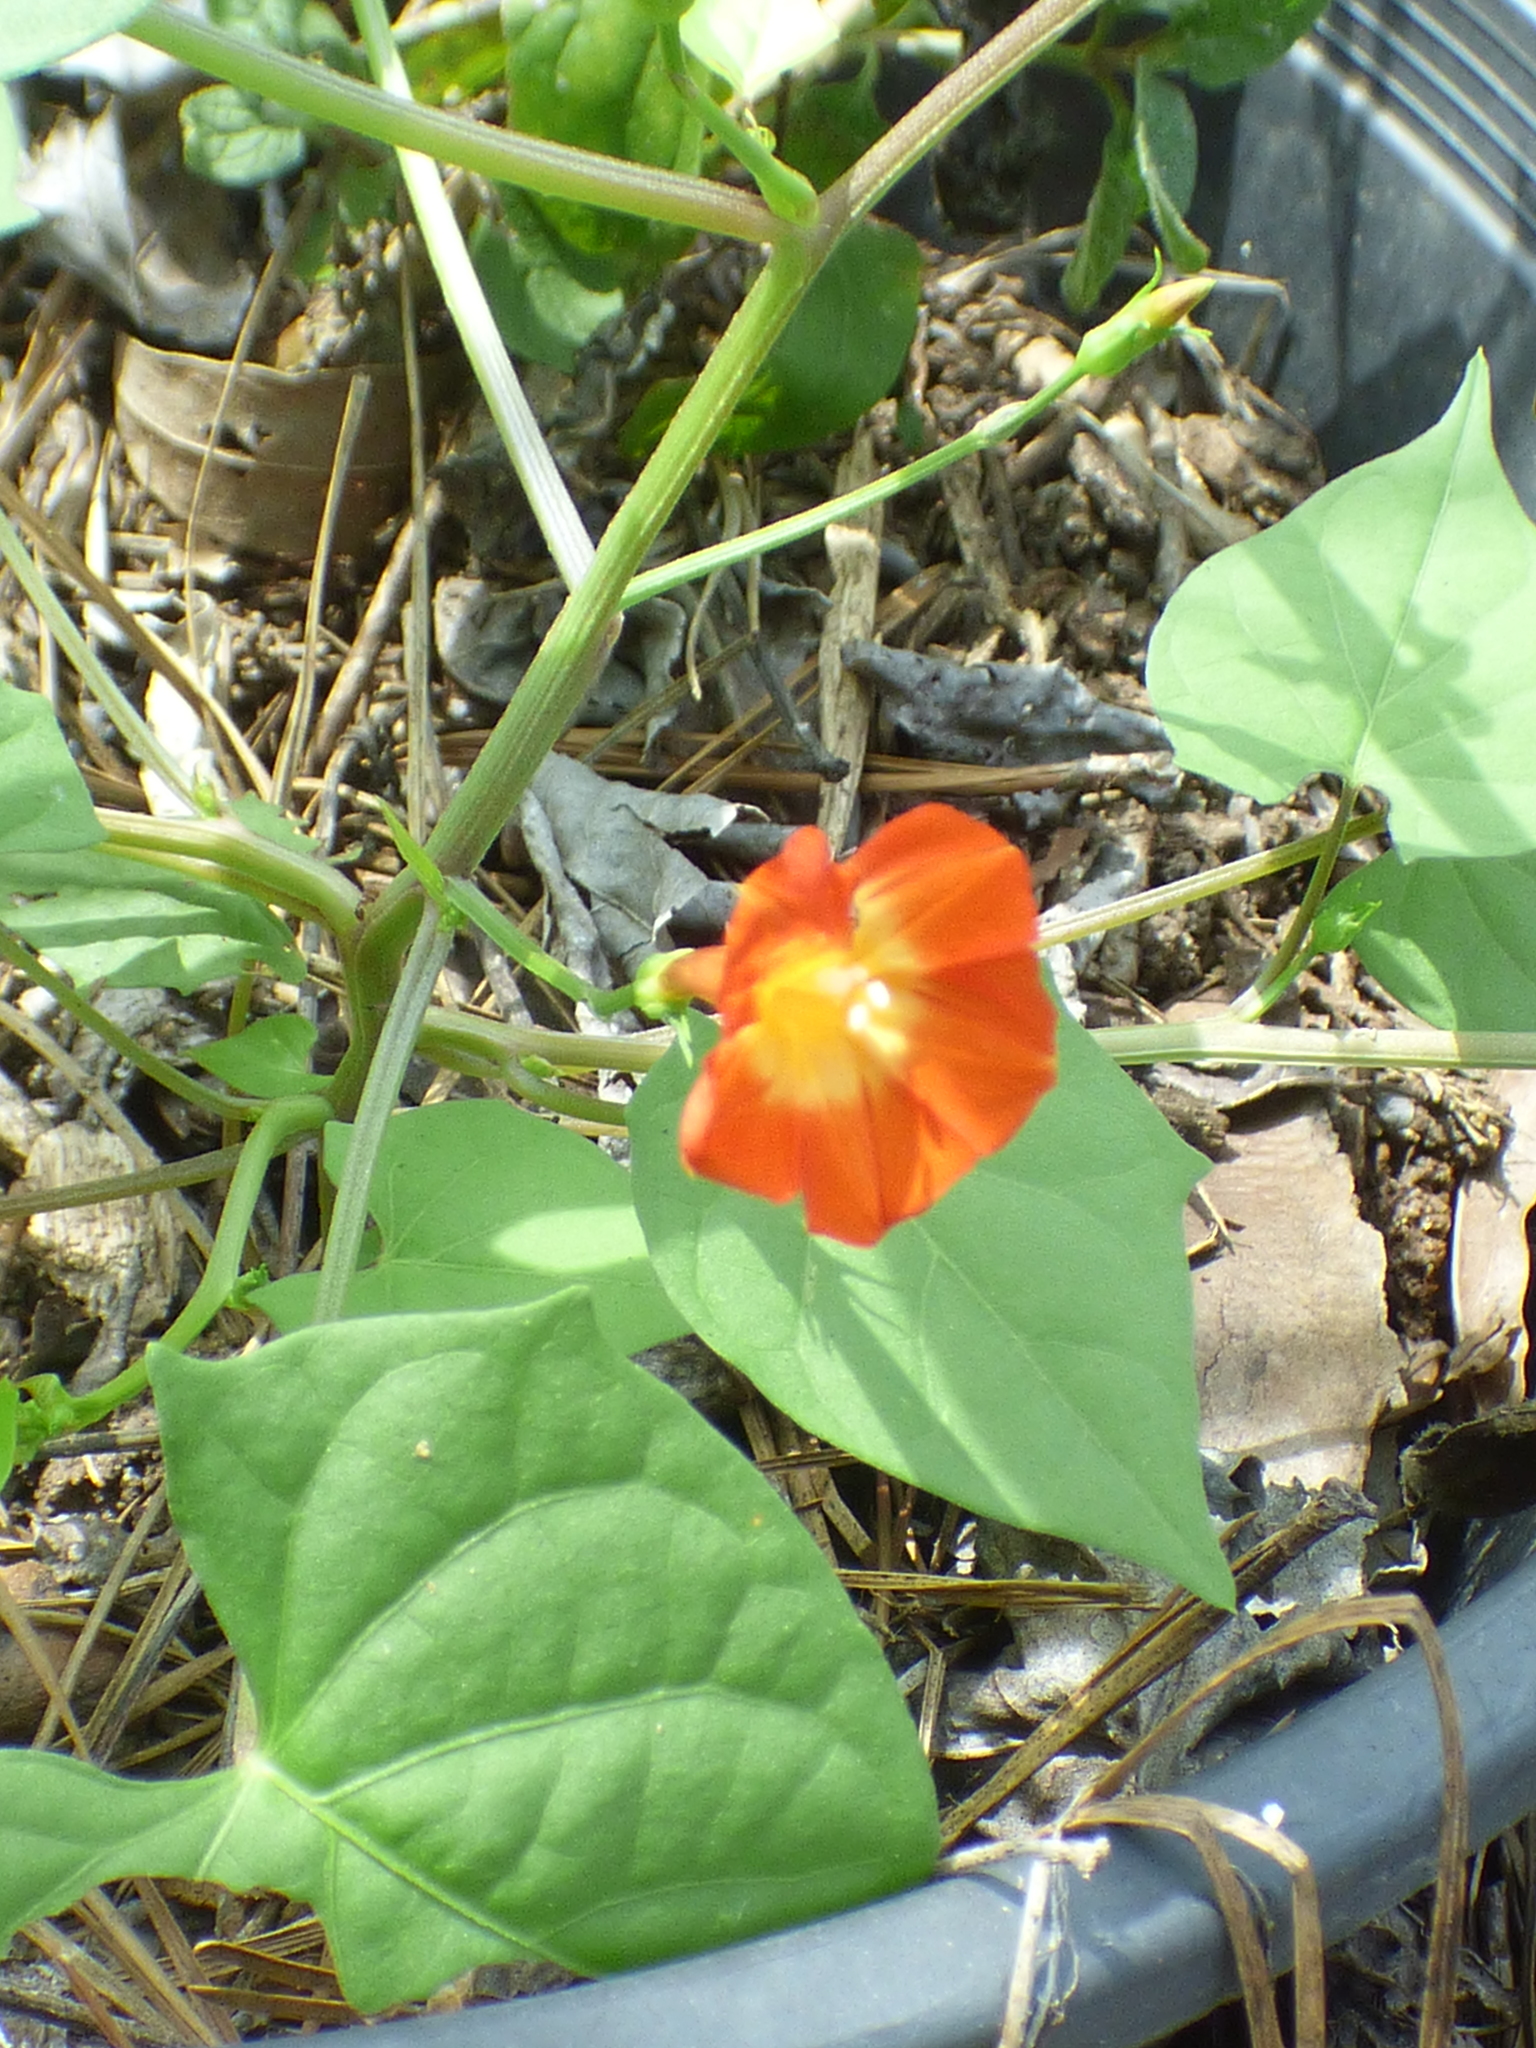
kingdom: Plantae
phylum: Tracheophyta
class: Magnoliopsida
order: Solanales
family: Convolvulaceae
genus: Ipomoea
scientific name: Ipomoea coccinea
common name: Red morning-glory
